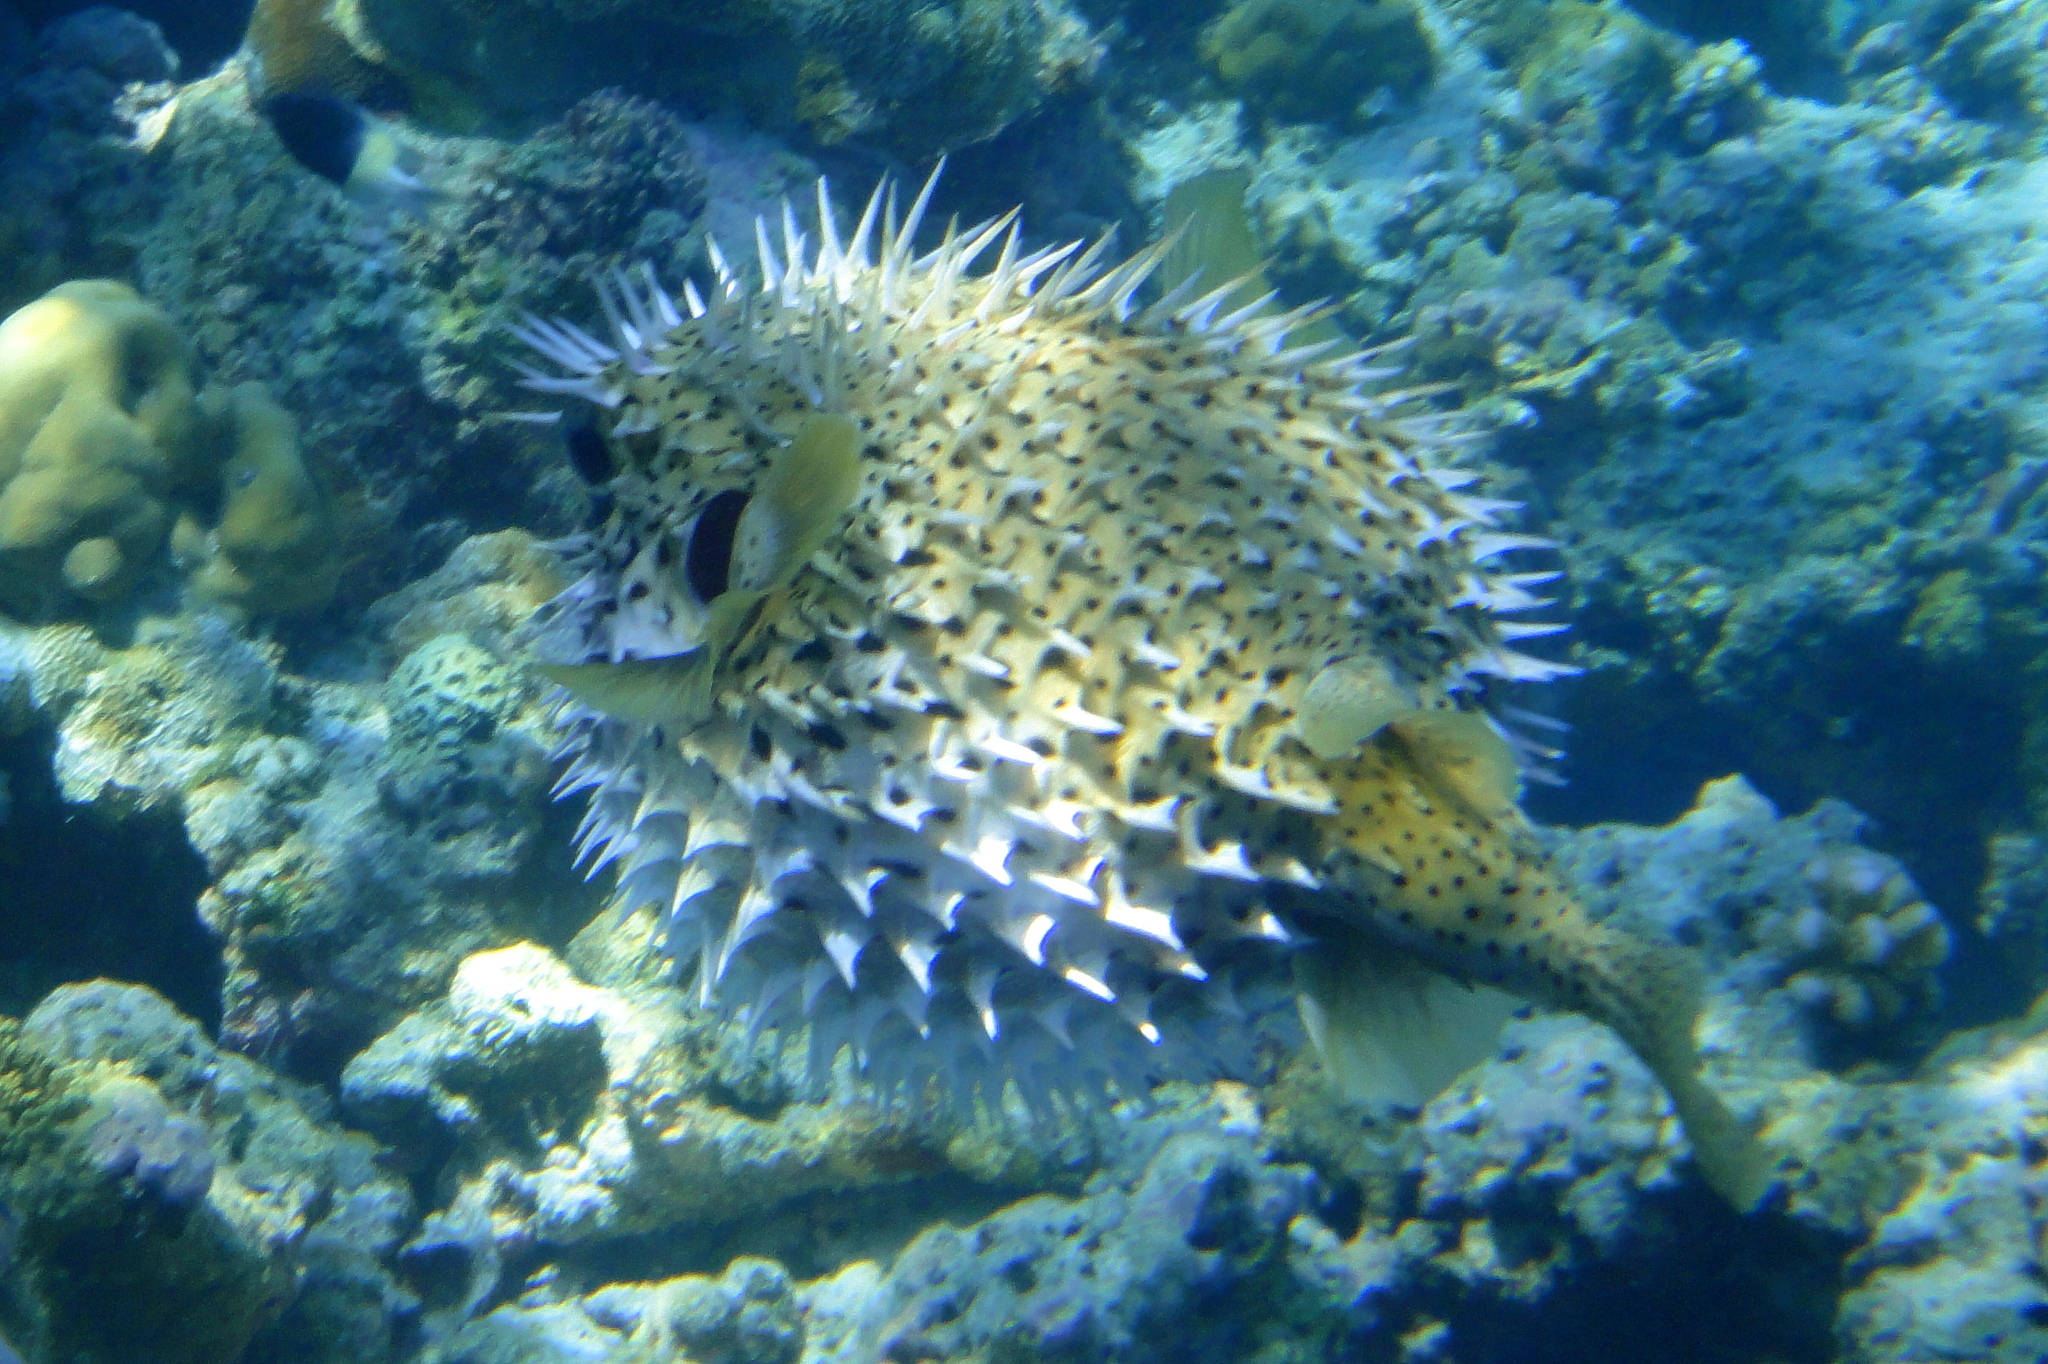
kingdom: Animalia
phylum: Chordata
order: Tetraodontiformes
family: Diodontidae
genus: Diodon
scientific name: Diodon hystrix
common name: Giant porcupinefish
